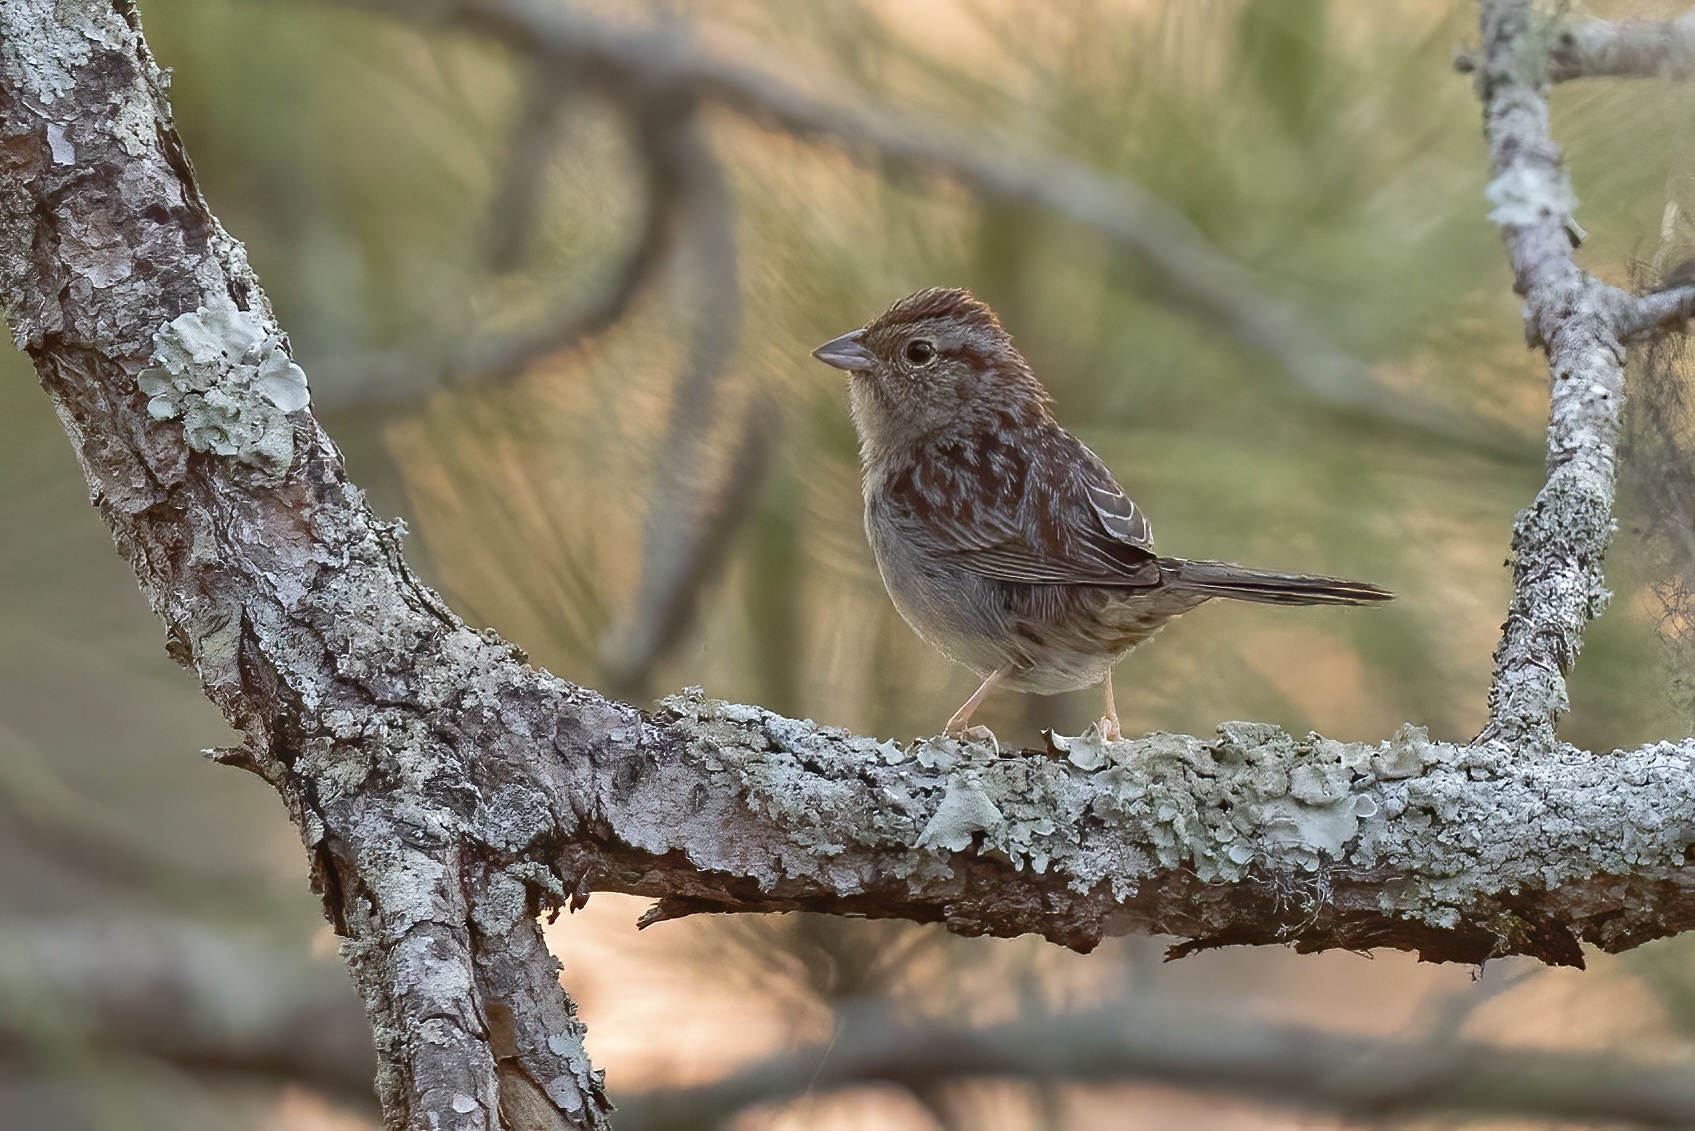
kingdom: Animalia
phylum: Chordata
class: Aves
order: Passeriformes
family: Passerellidae
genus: Peucaea
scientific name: Peucaea aestivalis
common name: Bachman's sparrow
